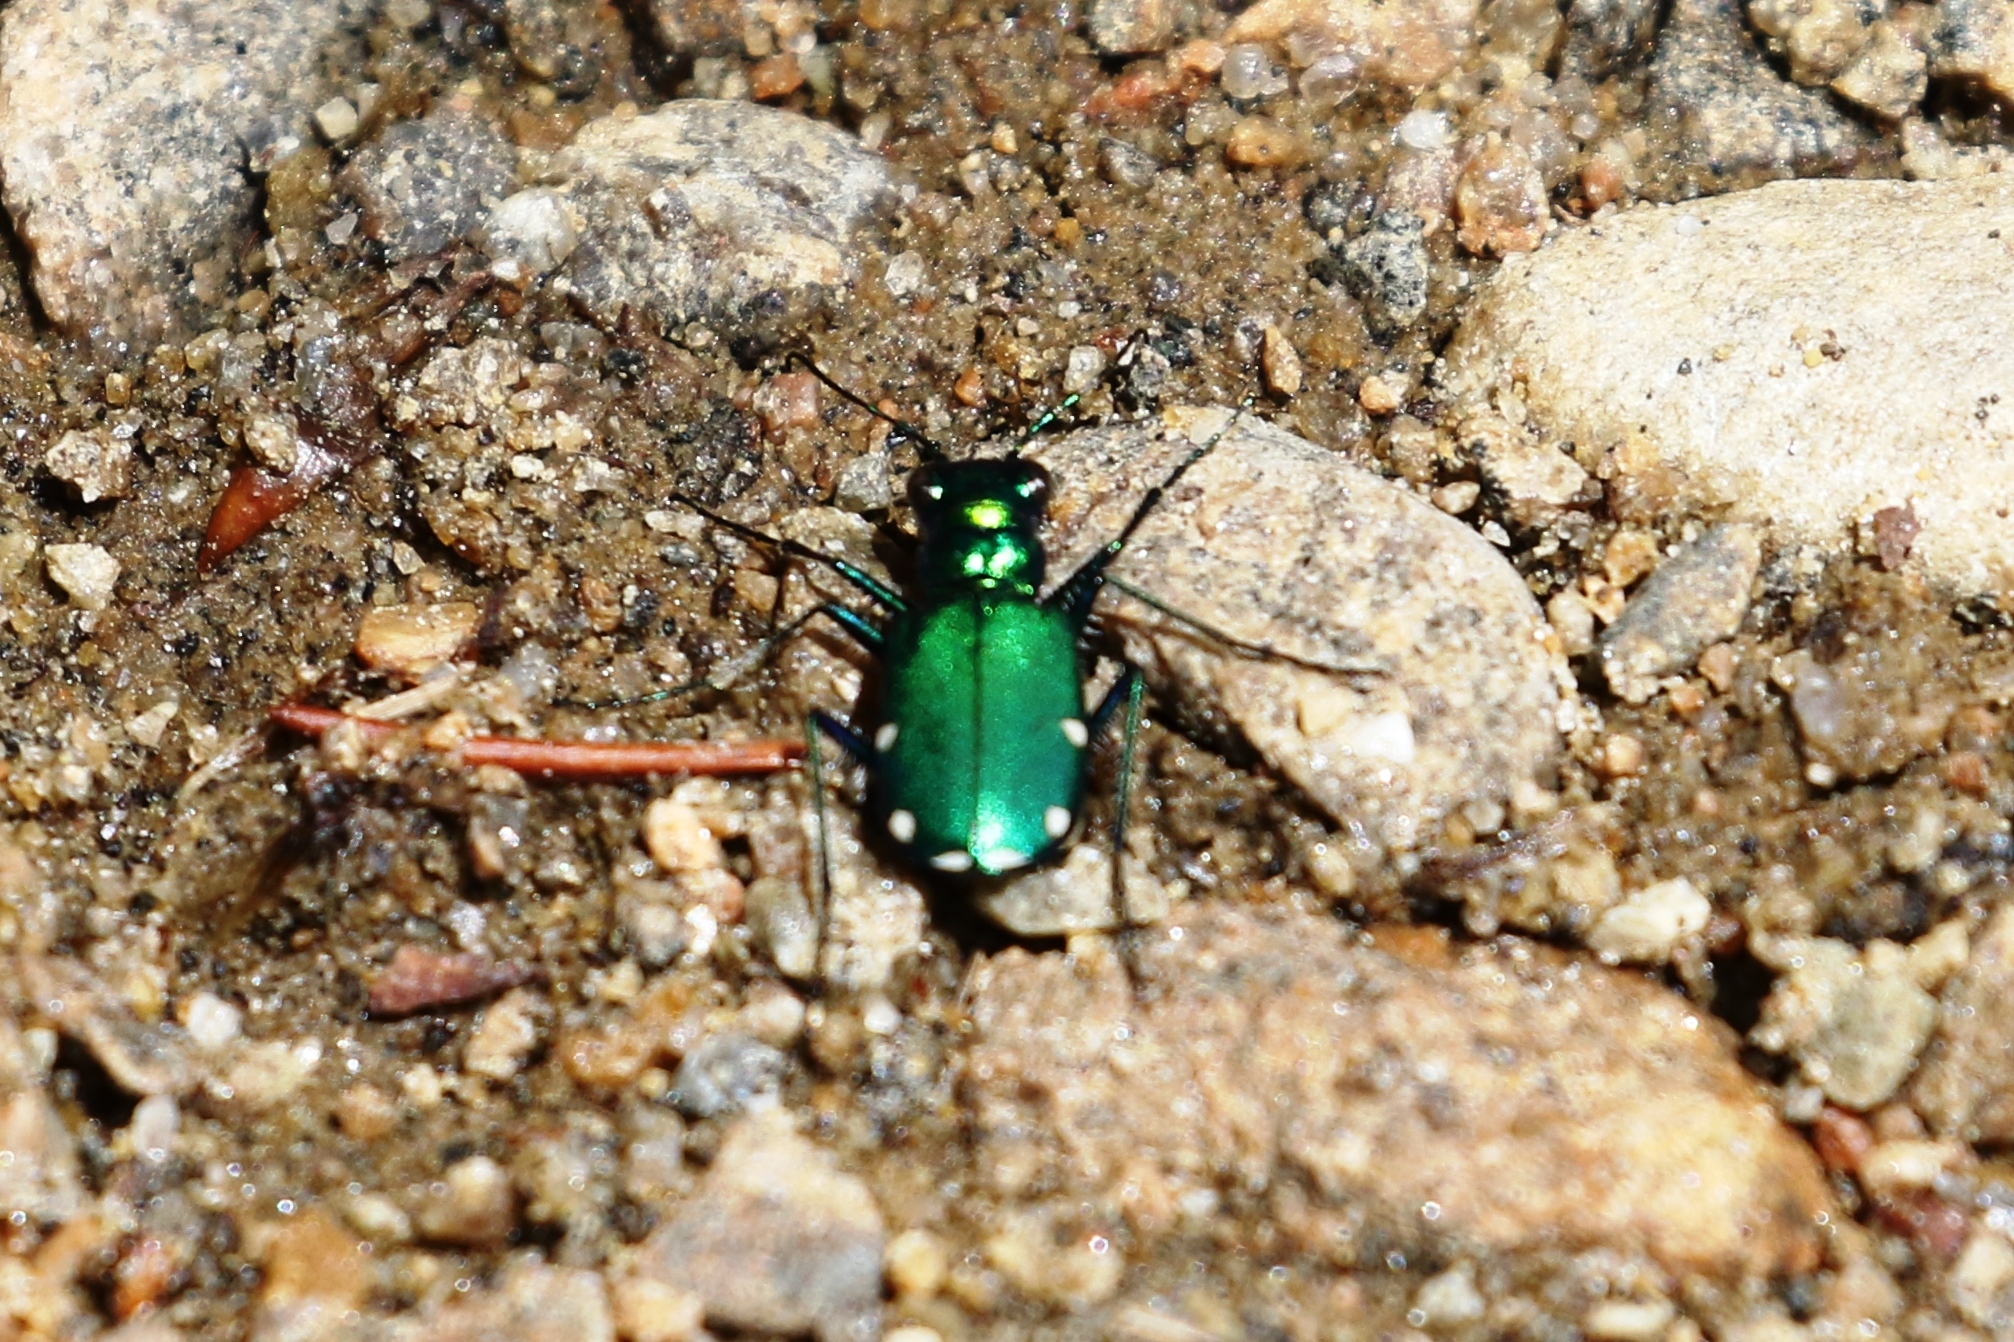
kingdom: Animalia
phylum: Arthropoda
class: Insecta
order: Coleoptera
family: Carabidae
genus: Cicindela
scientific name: Cicindela sexguttata
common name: Six-spotted tiger beetle
